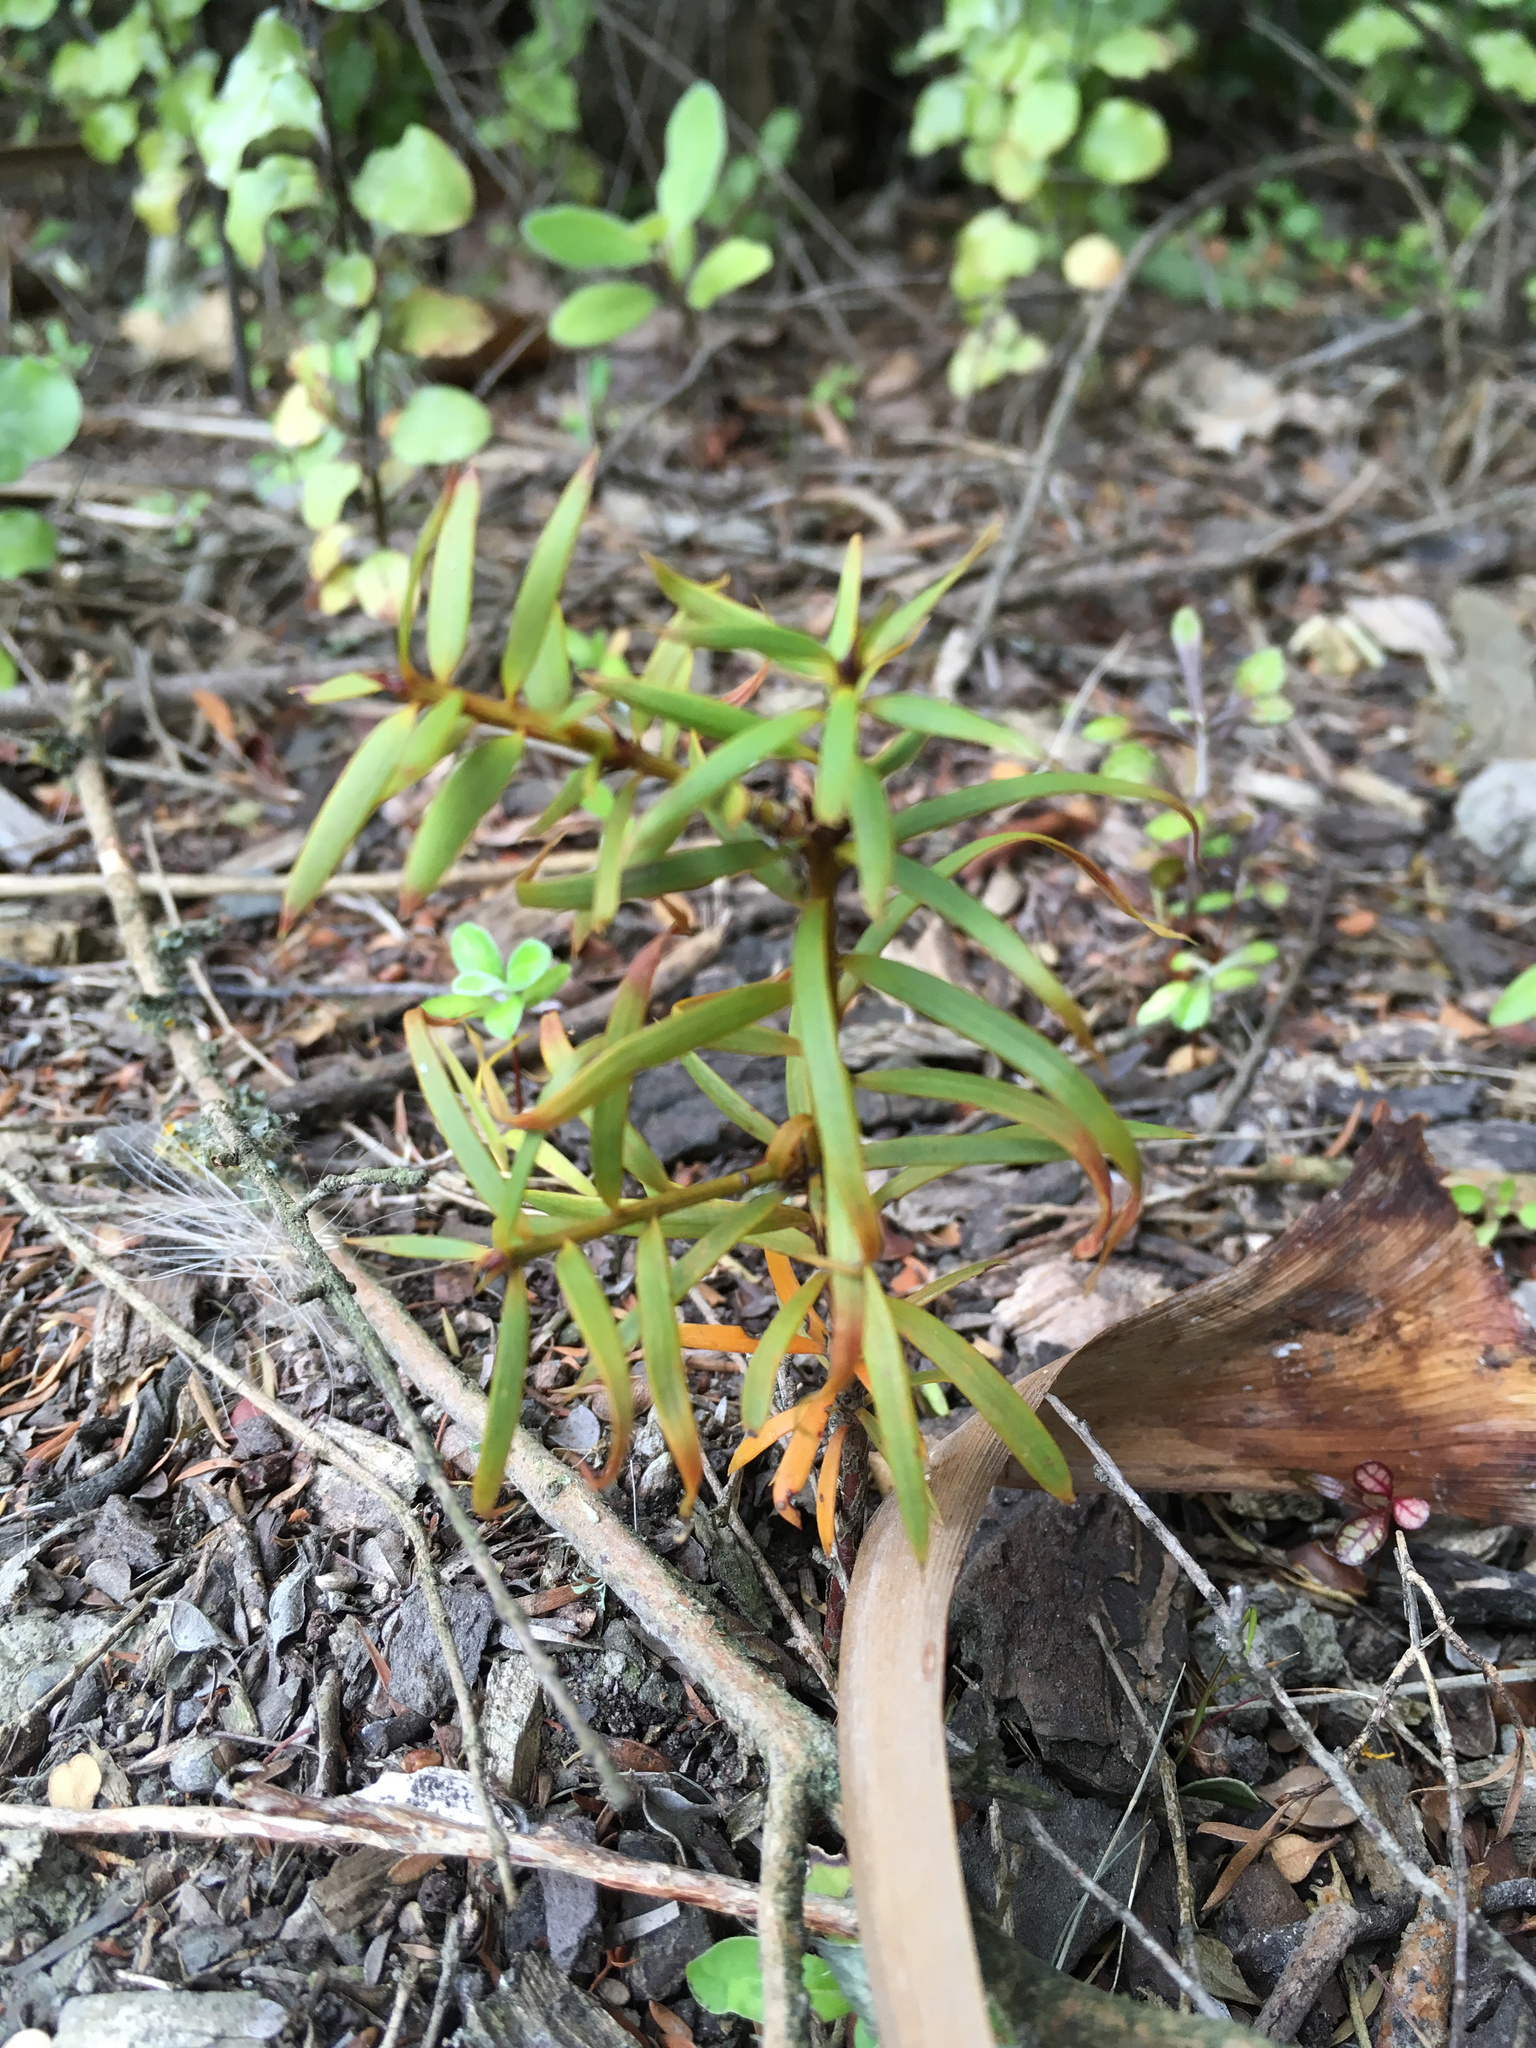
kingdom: Plantae
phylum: Tracheophyta
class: Pinopsida
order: Pinales
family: Podocarpaceae
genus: Podocarpus
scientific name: Podocarpus totara
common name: Totara
